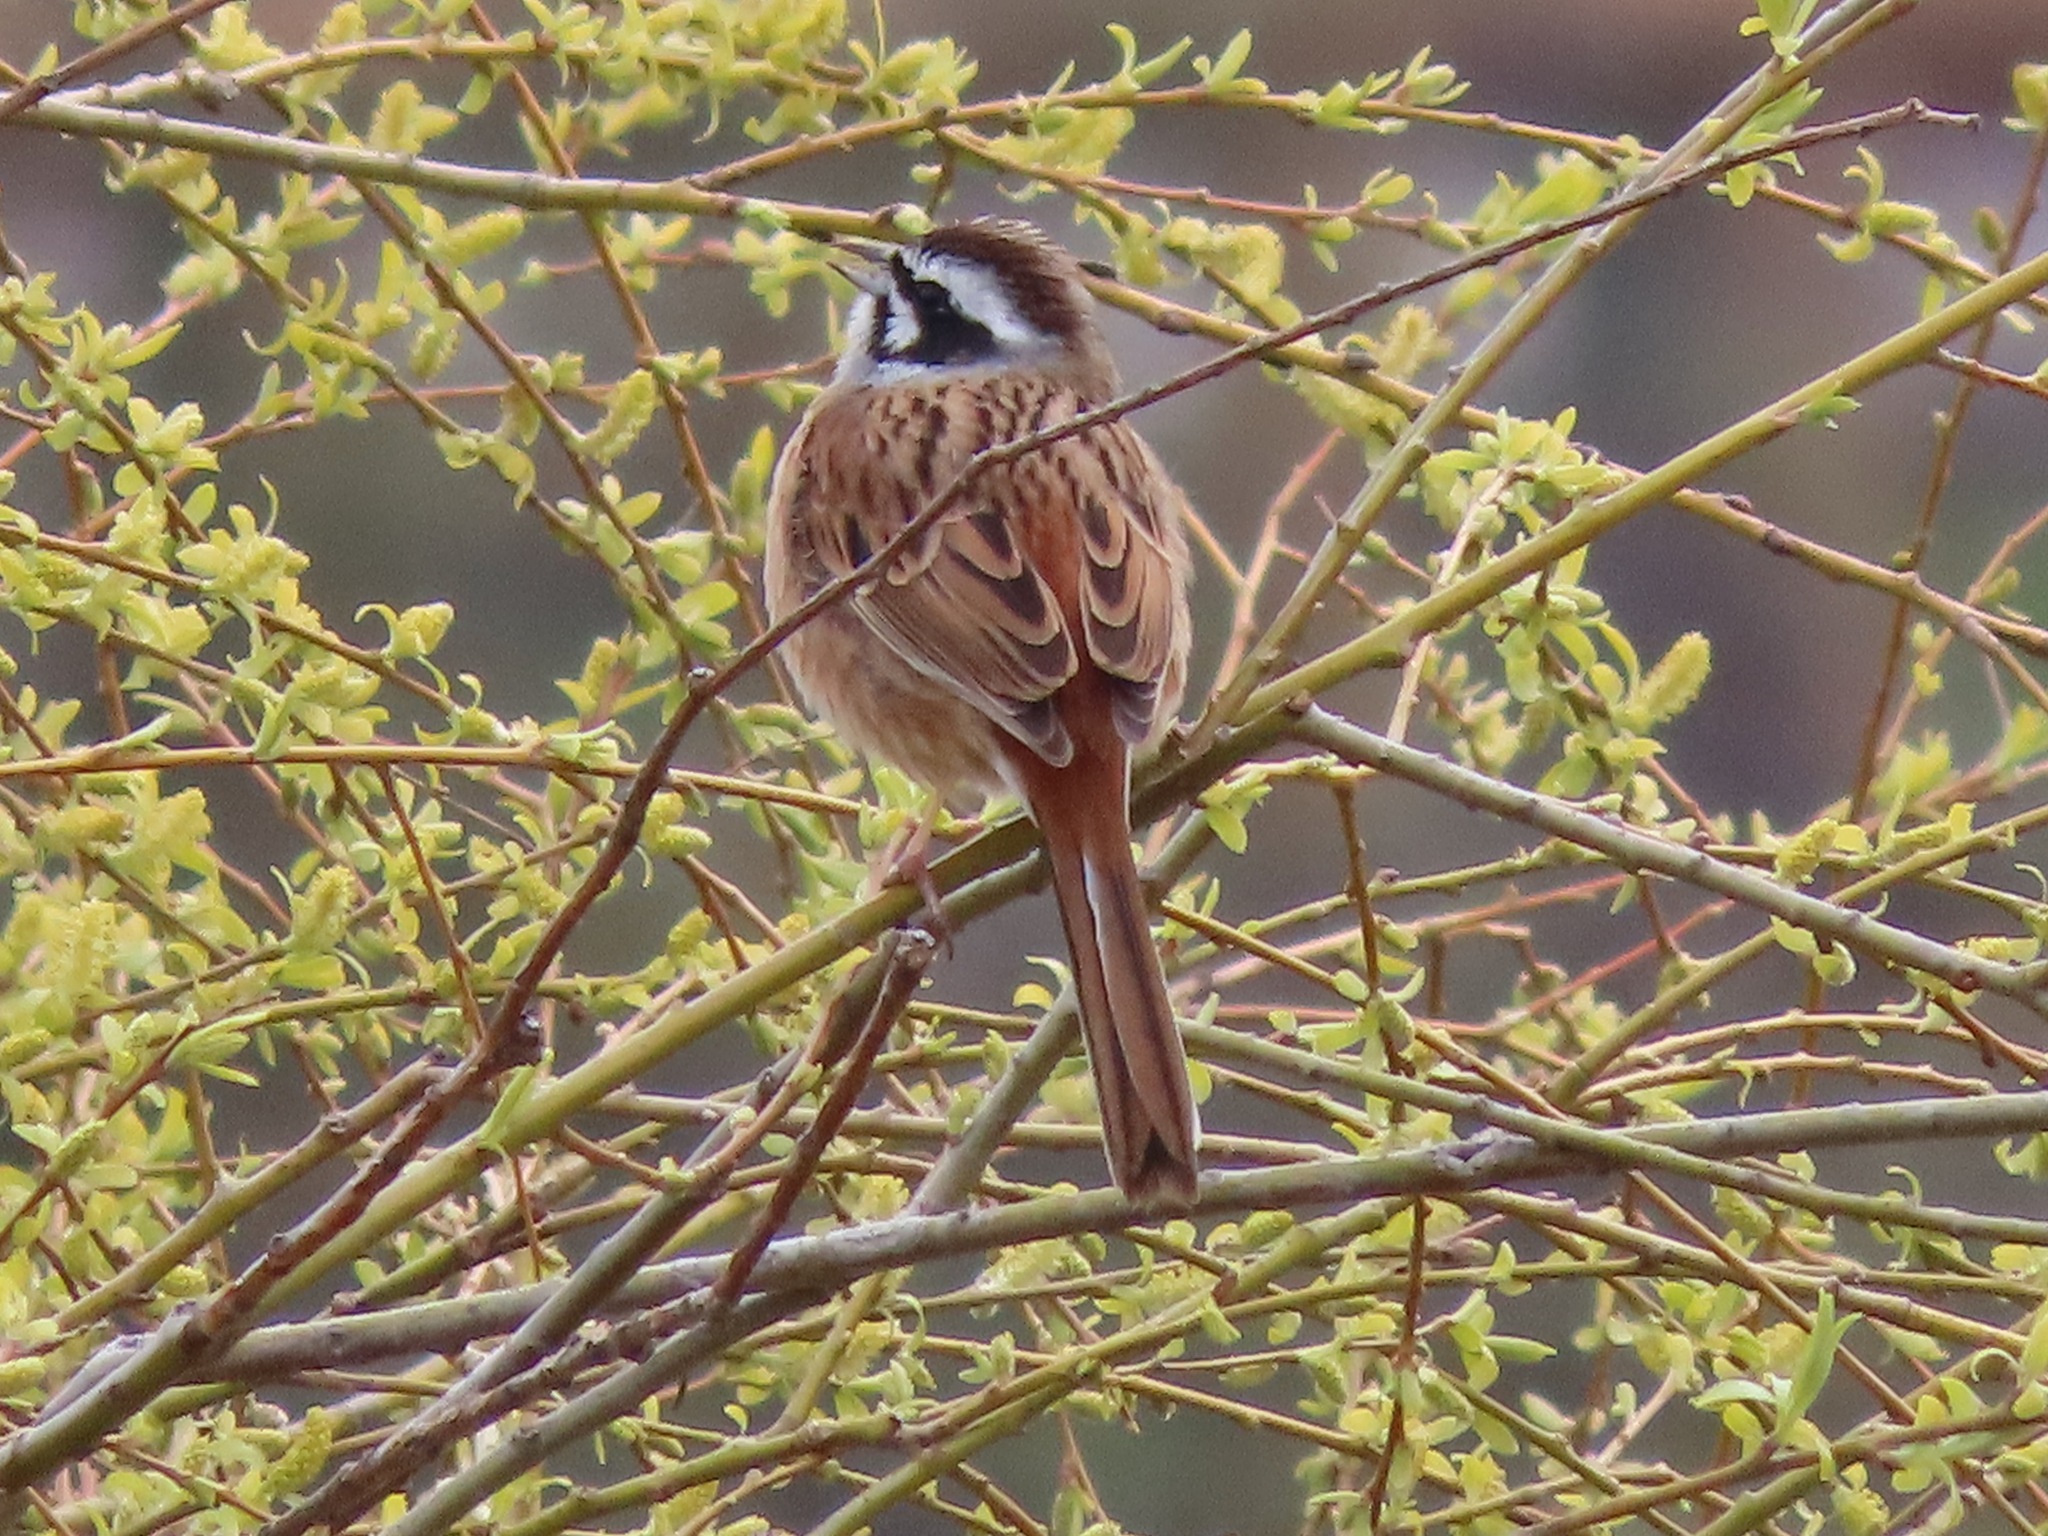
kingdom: Animalia
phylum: Chordata
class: Aves
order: Passeriformes
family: Emberizidae
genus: Emberiza
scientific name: Emberiza cioides
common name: Meadow bunting
